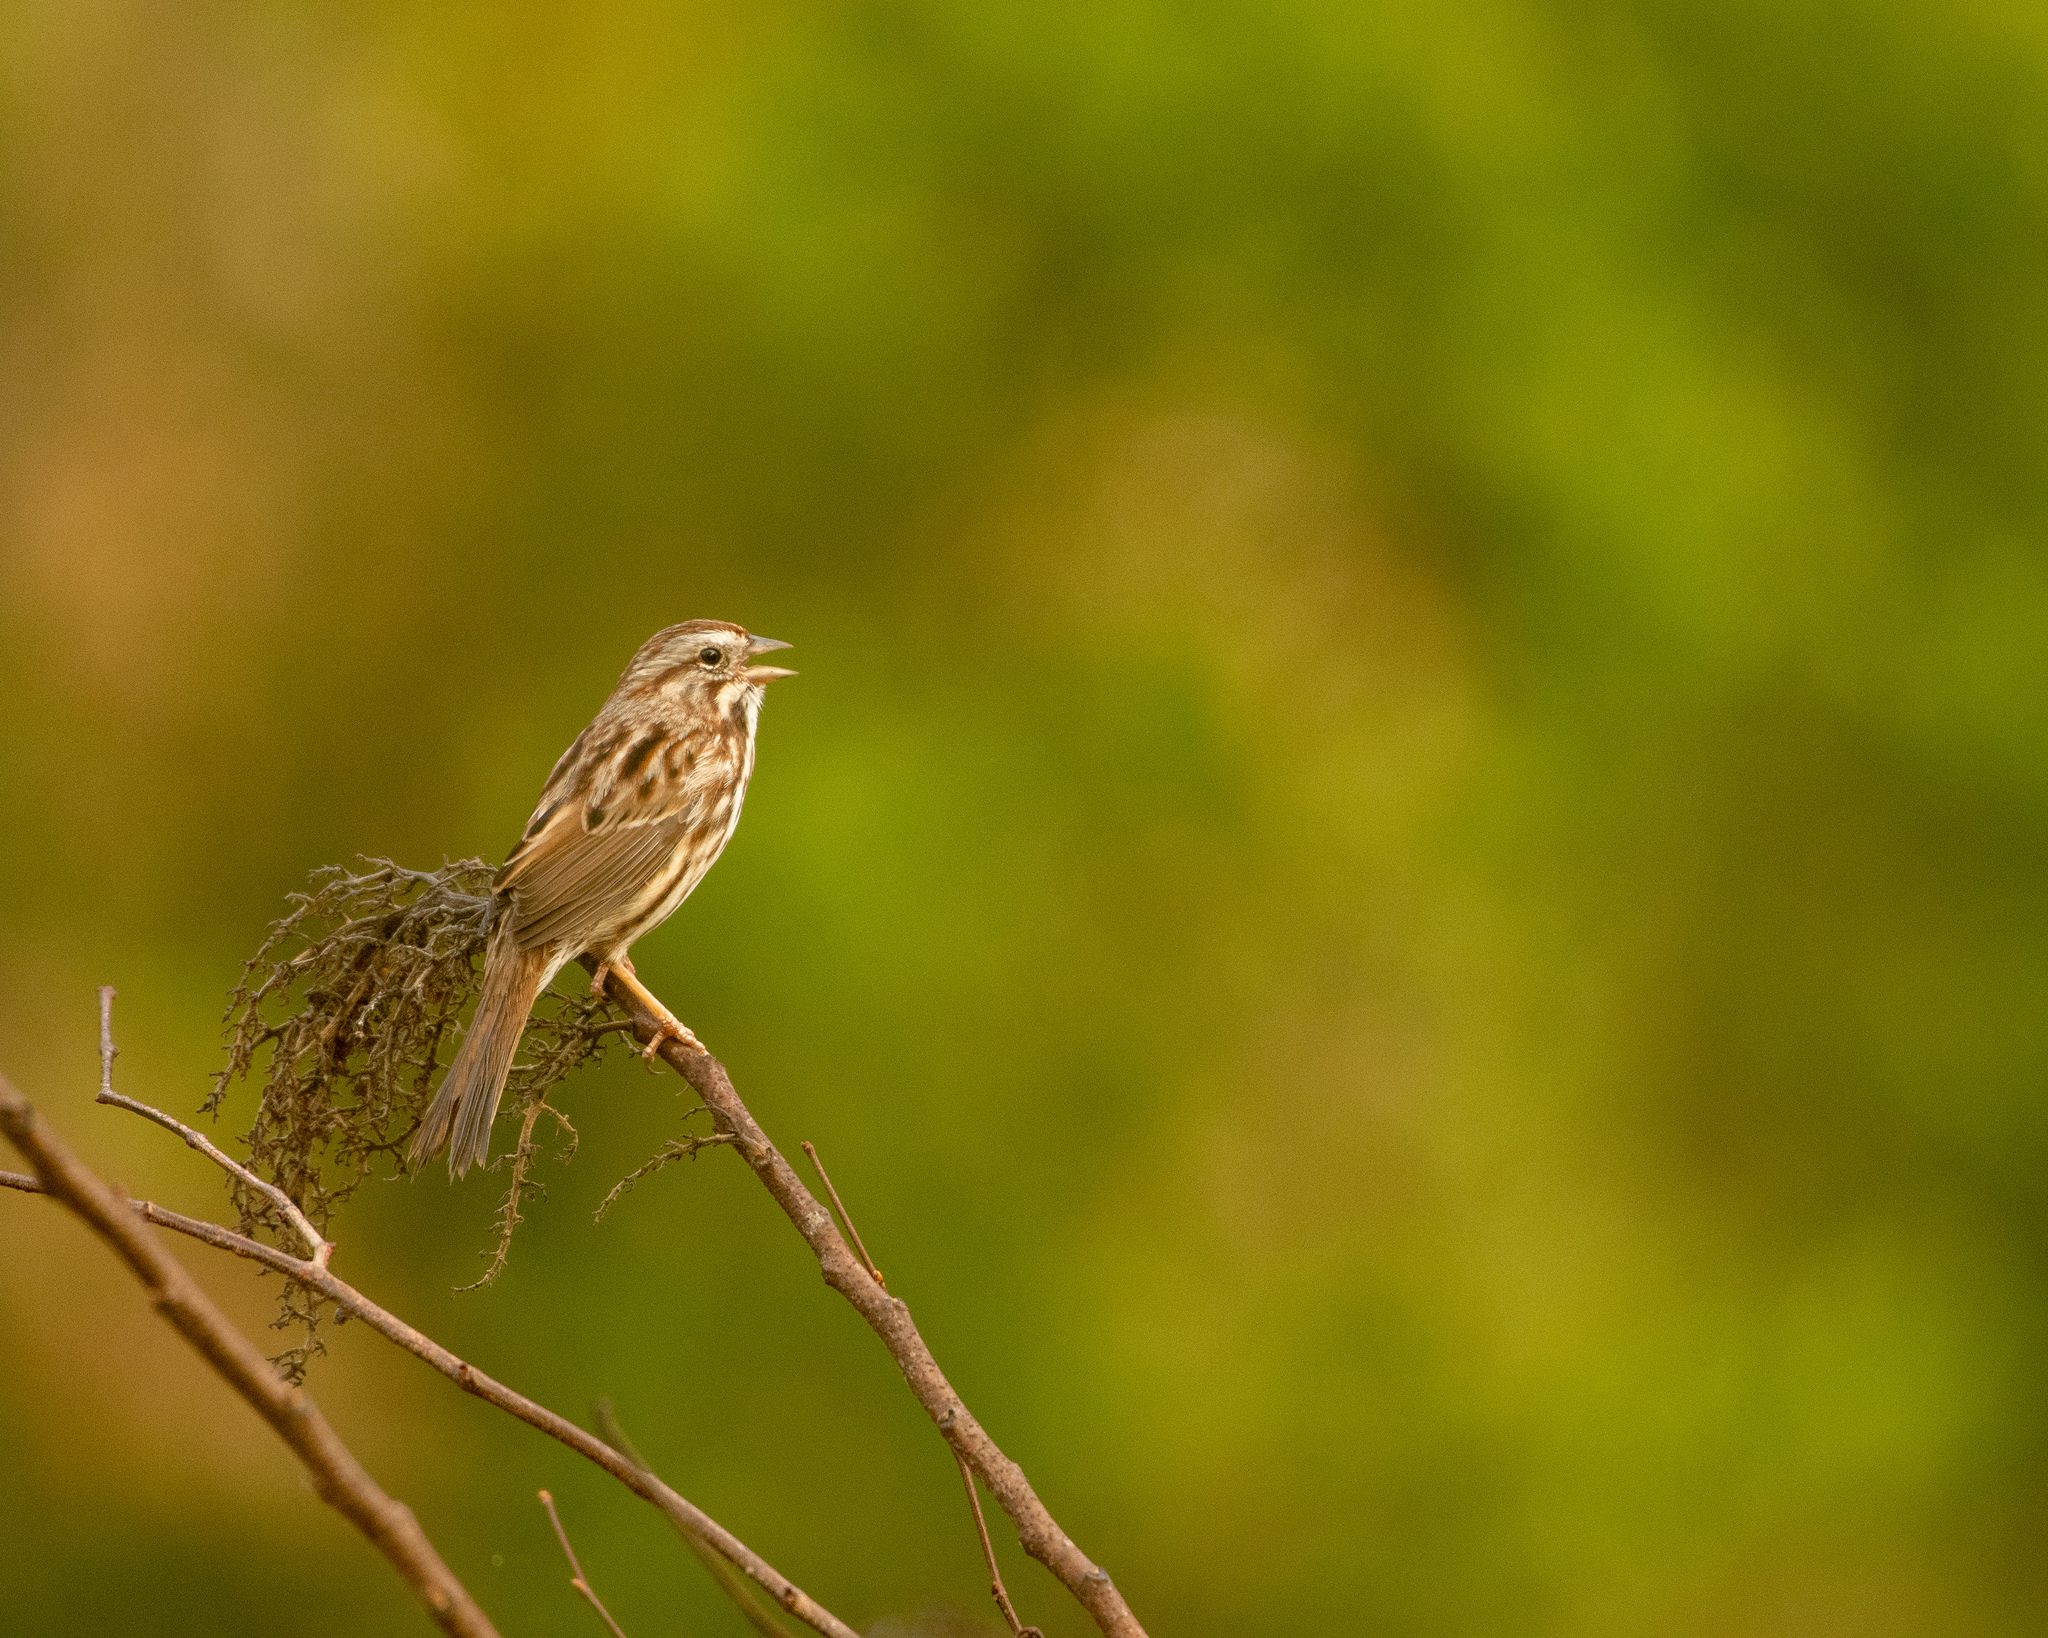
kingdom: Animalia
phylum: Chordata
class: Aves
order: Passeriformes
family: Passerellidae
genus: Melospiza
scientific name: Melospiza melodia
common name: Song sparrow
